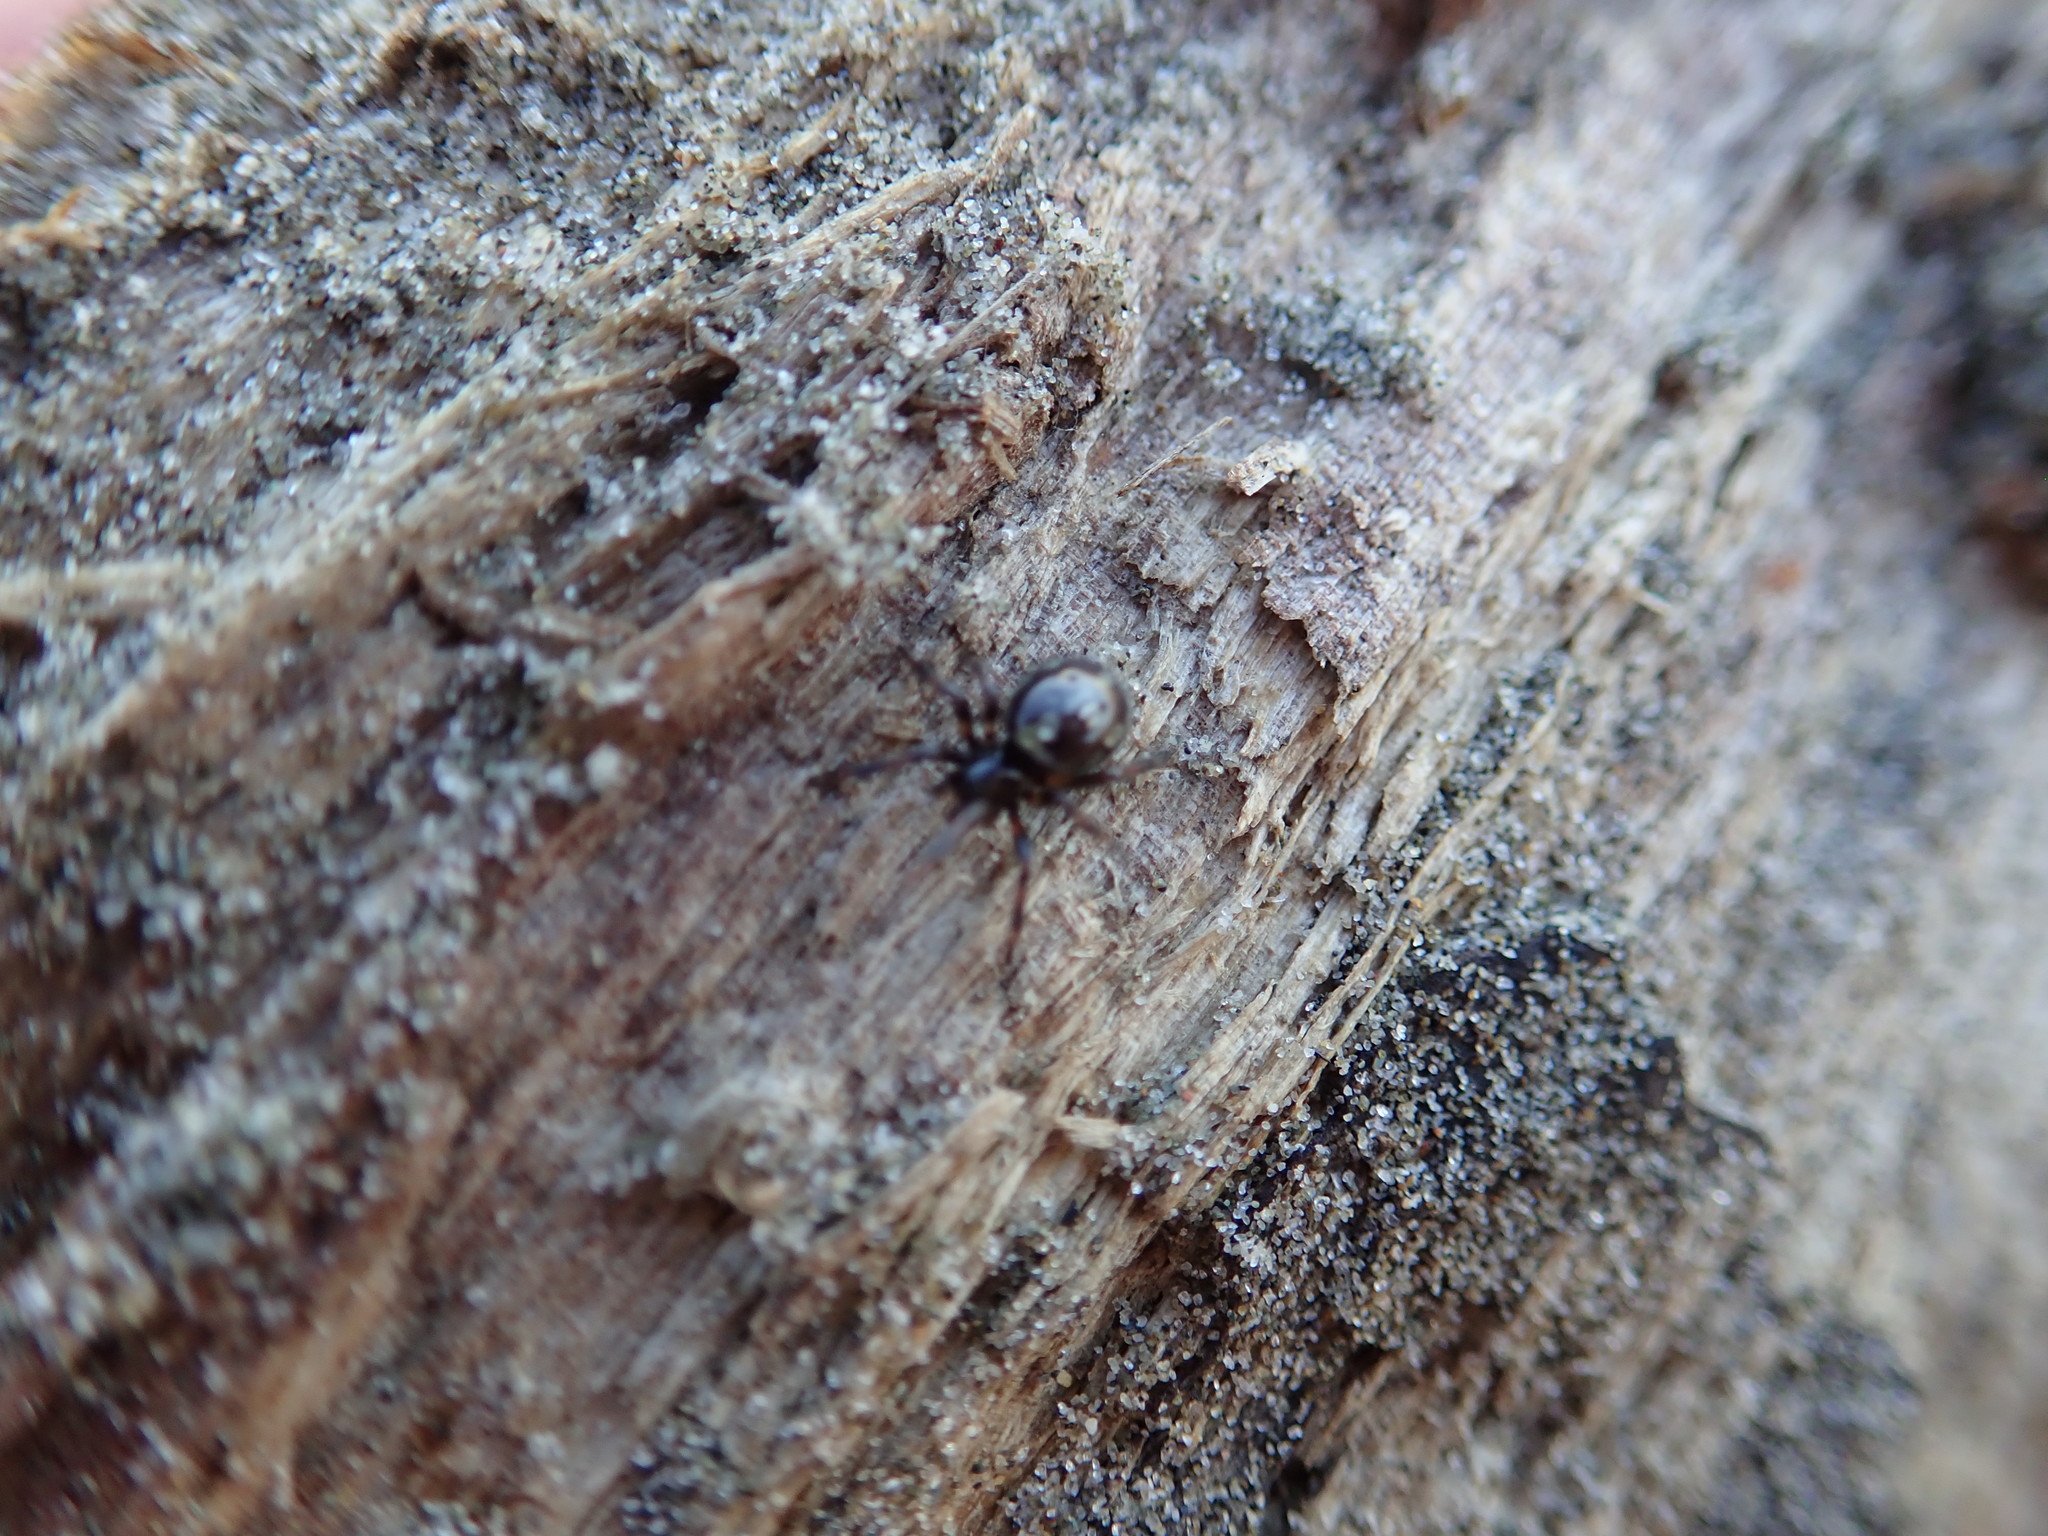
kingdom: Animalia
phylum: Arthropoda
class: Arachnida
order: Araneae
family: Theridiidae
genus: Steatoda
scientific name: Steatoda lepida
